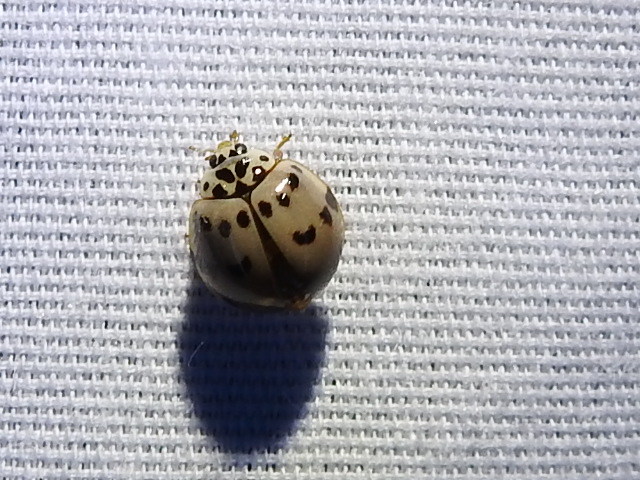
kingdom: Animalia
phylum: Arthropoda
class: Insecta
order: Coleoptera
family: Coccinellidae
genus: Olla
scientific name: Olla v-nigrum
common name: Ashy gray lady beetle
